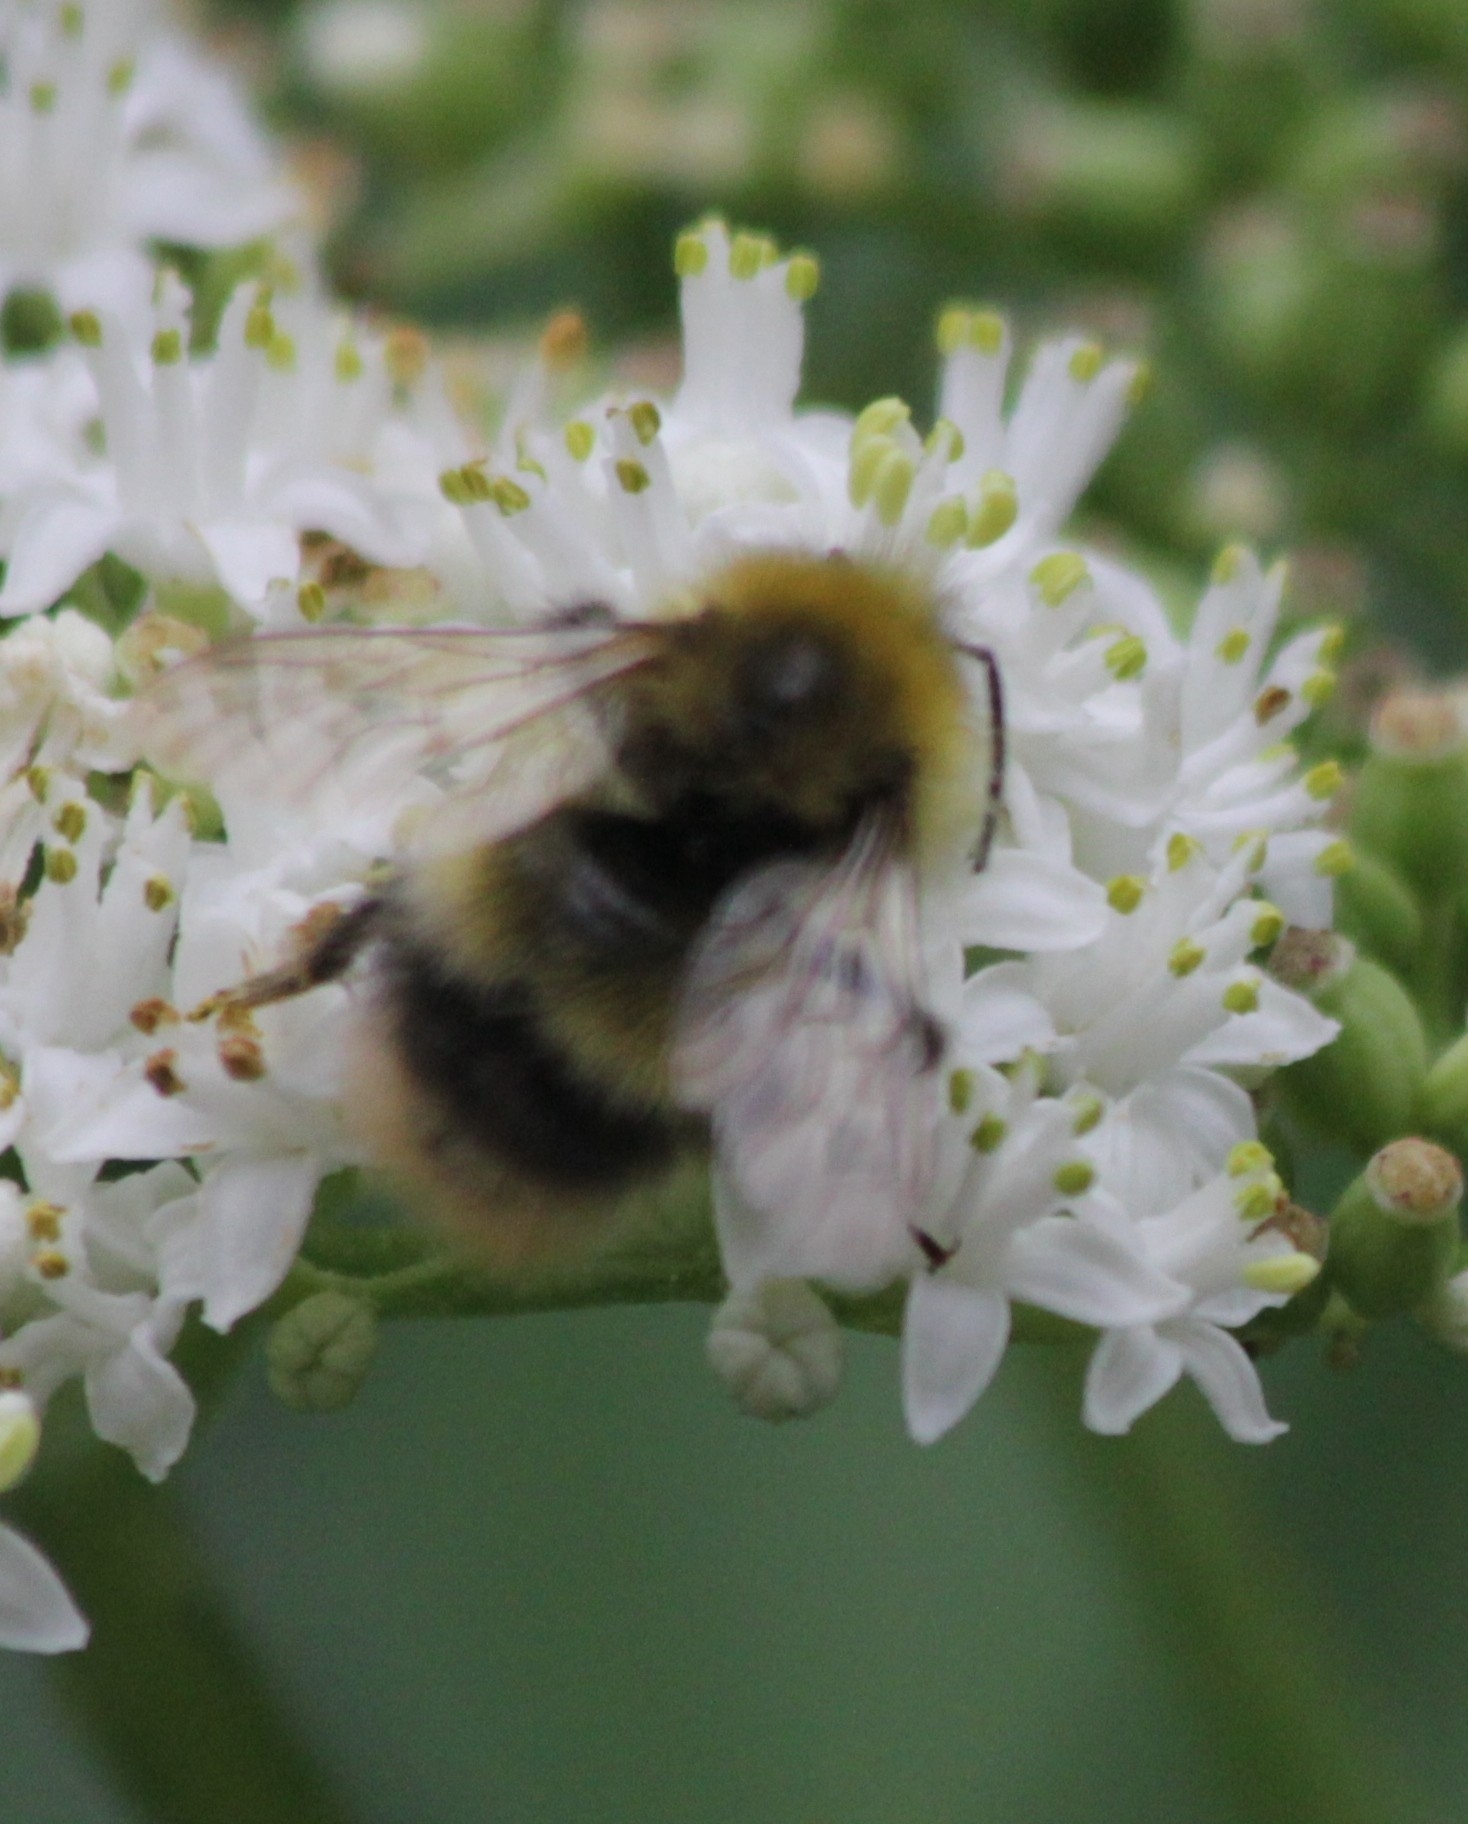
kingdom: Animalia
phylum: Arthropoda
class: Insecta
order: Hymenoptera
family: Apidae
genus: Bombus
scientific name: Bombus pratorum
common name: Early humble-bee
